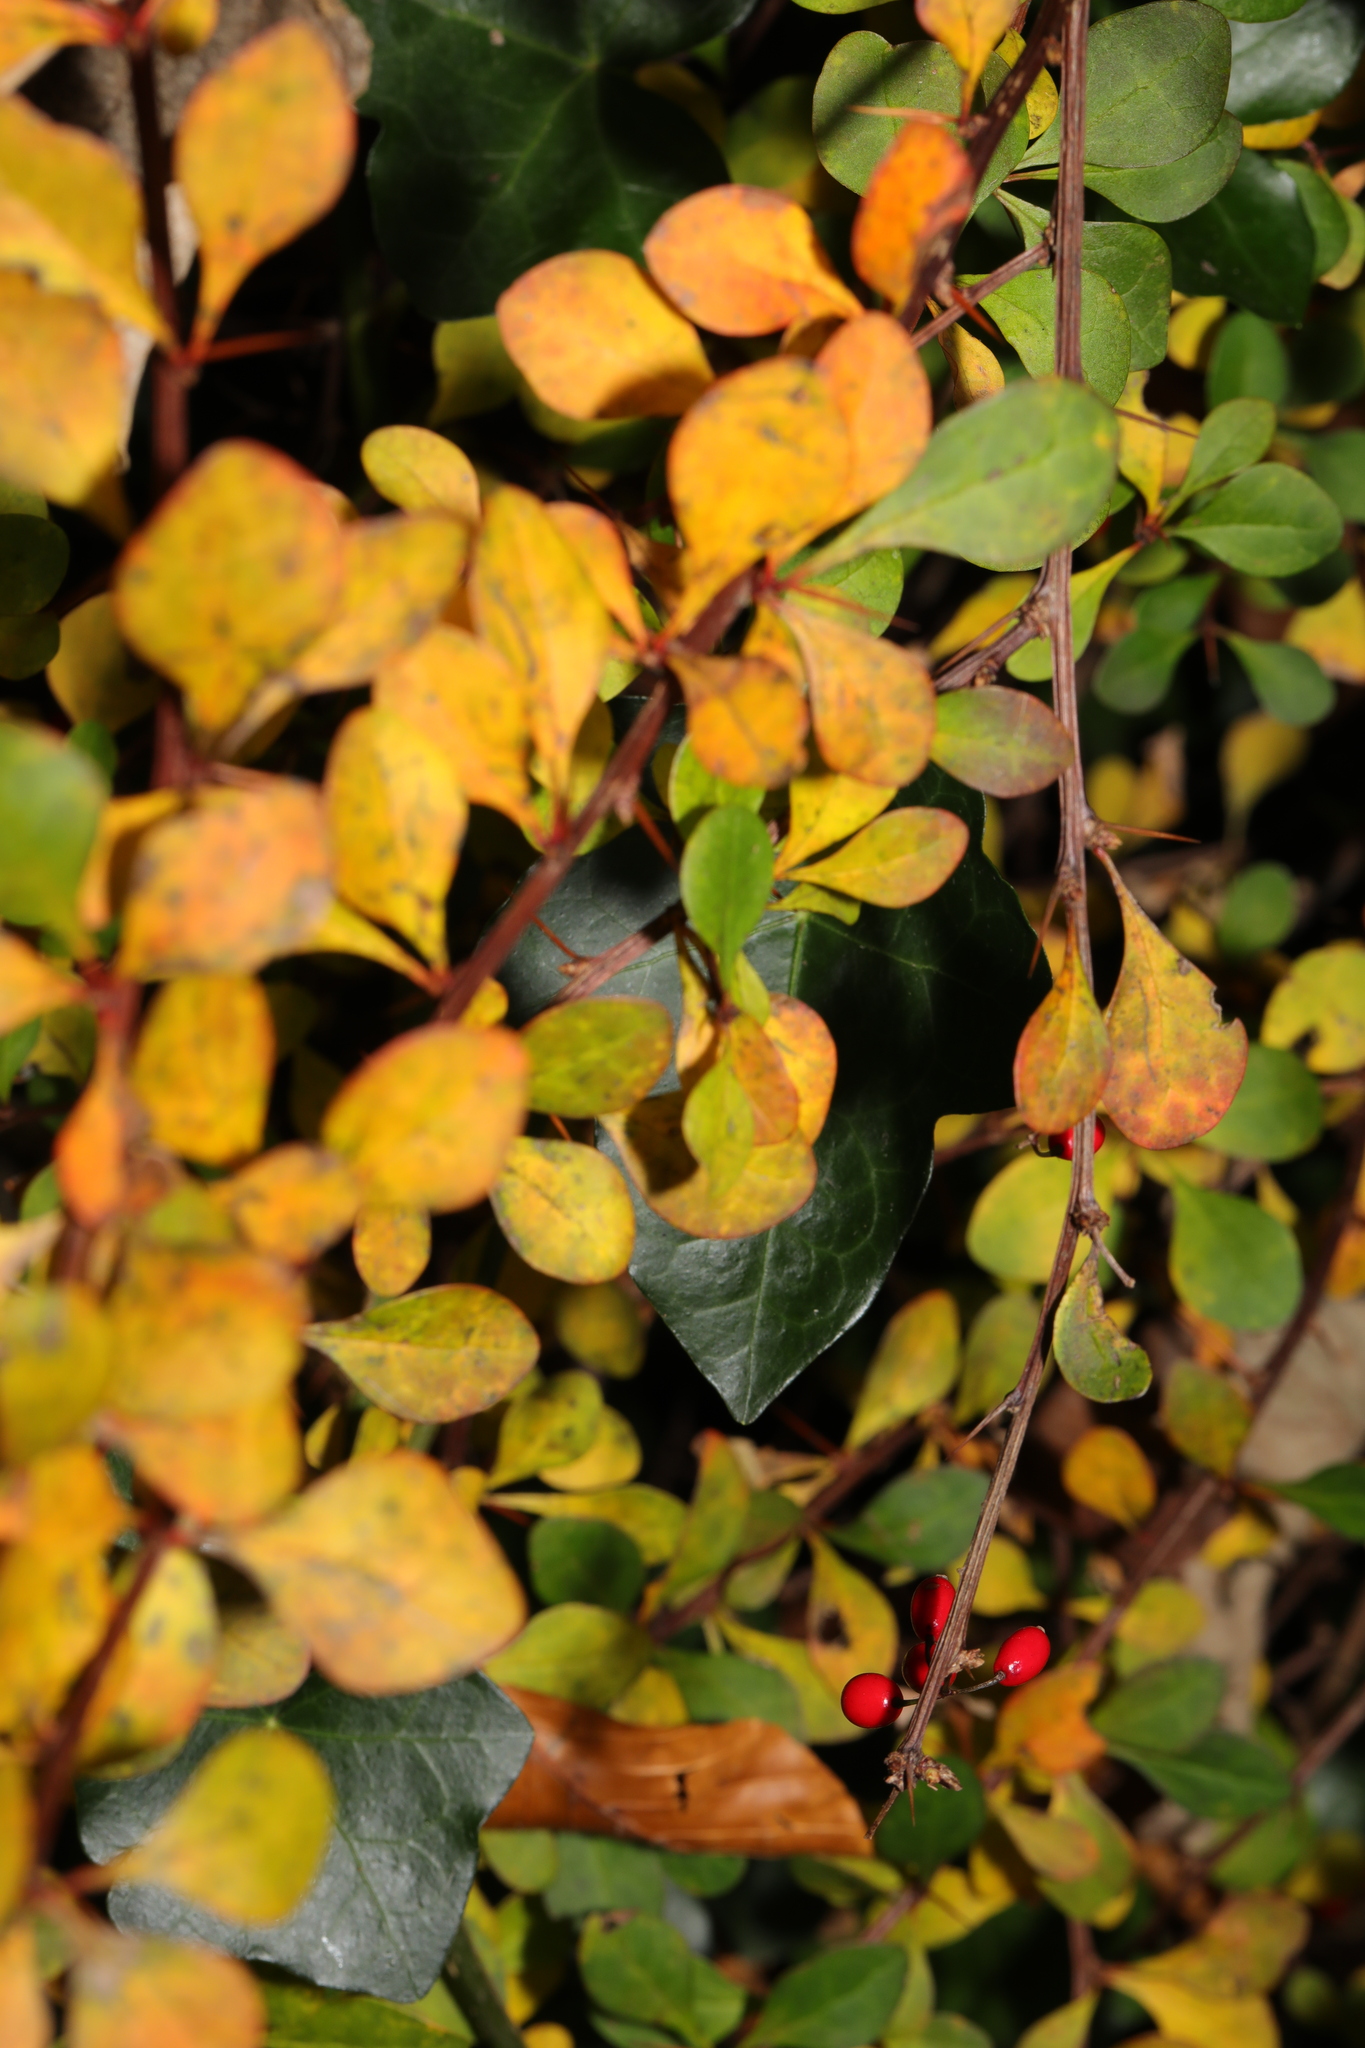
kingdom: Plantae
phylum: Tracheophyta
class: Magnoliopsida
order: Ranunculales
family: Berberidaceae
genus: Berberis
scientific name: Berberis thunbergii
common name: Japanese barberry
